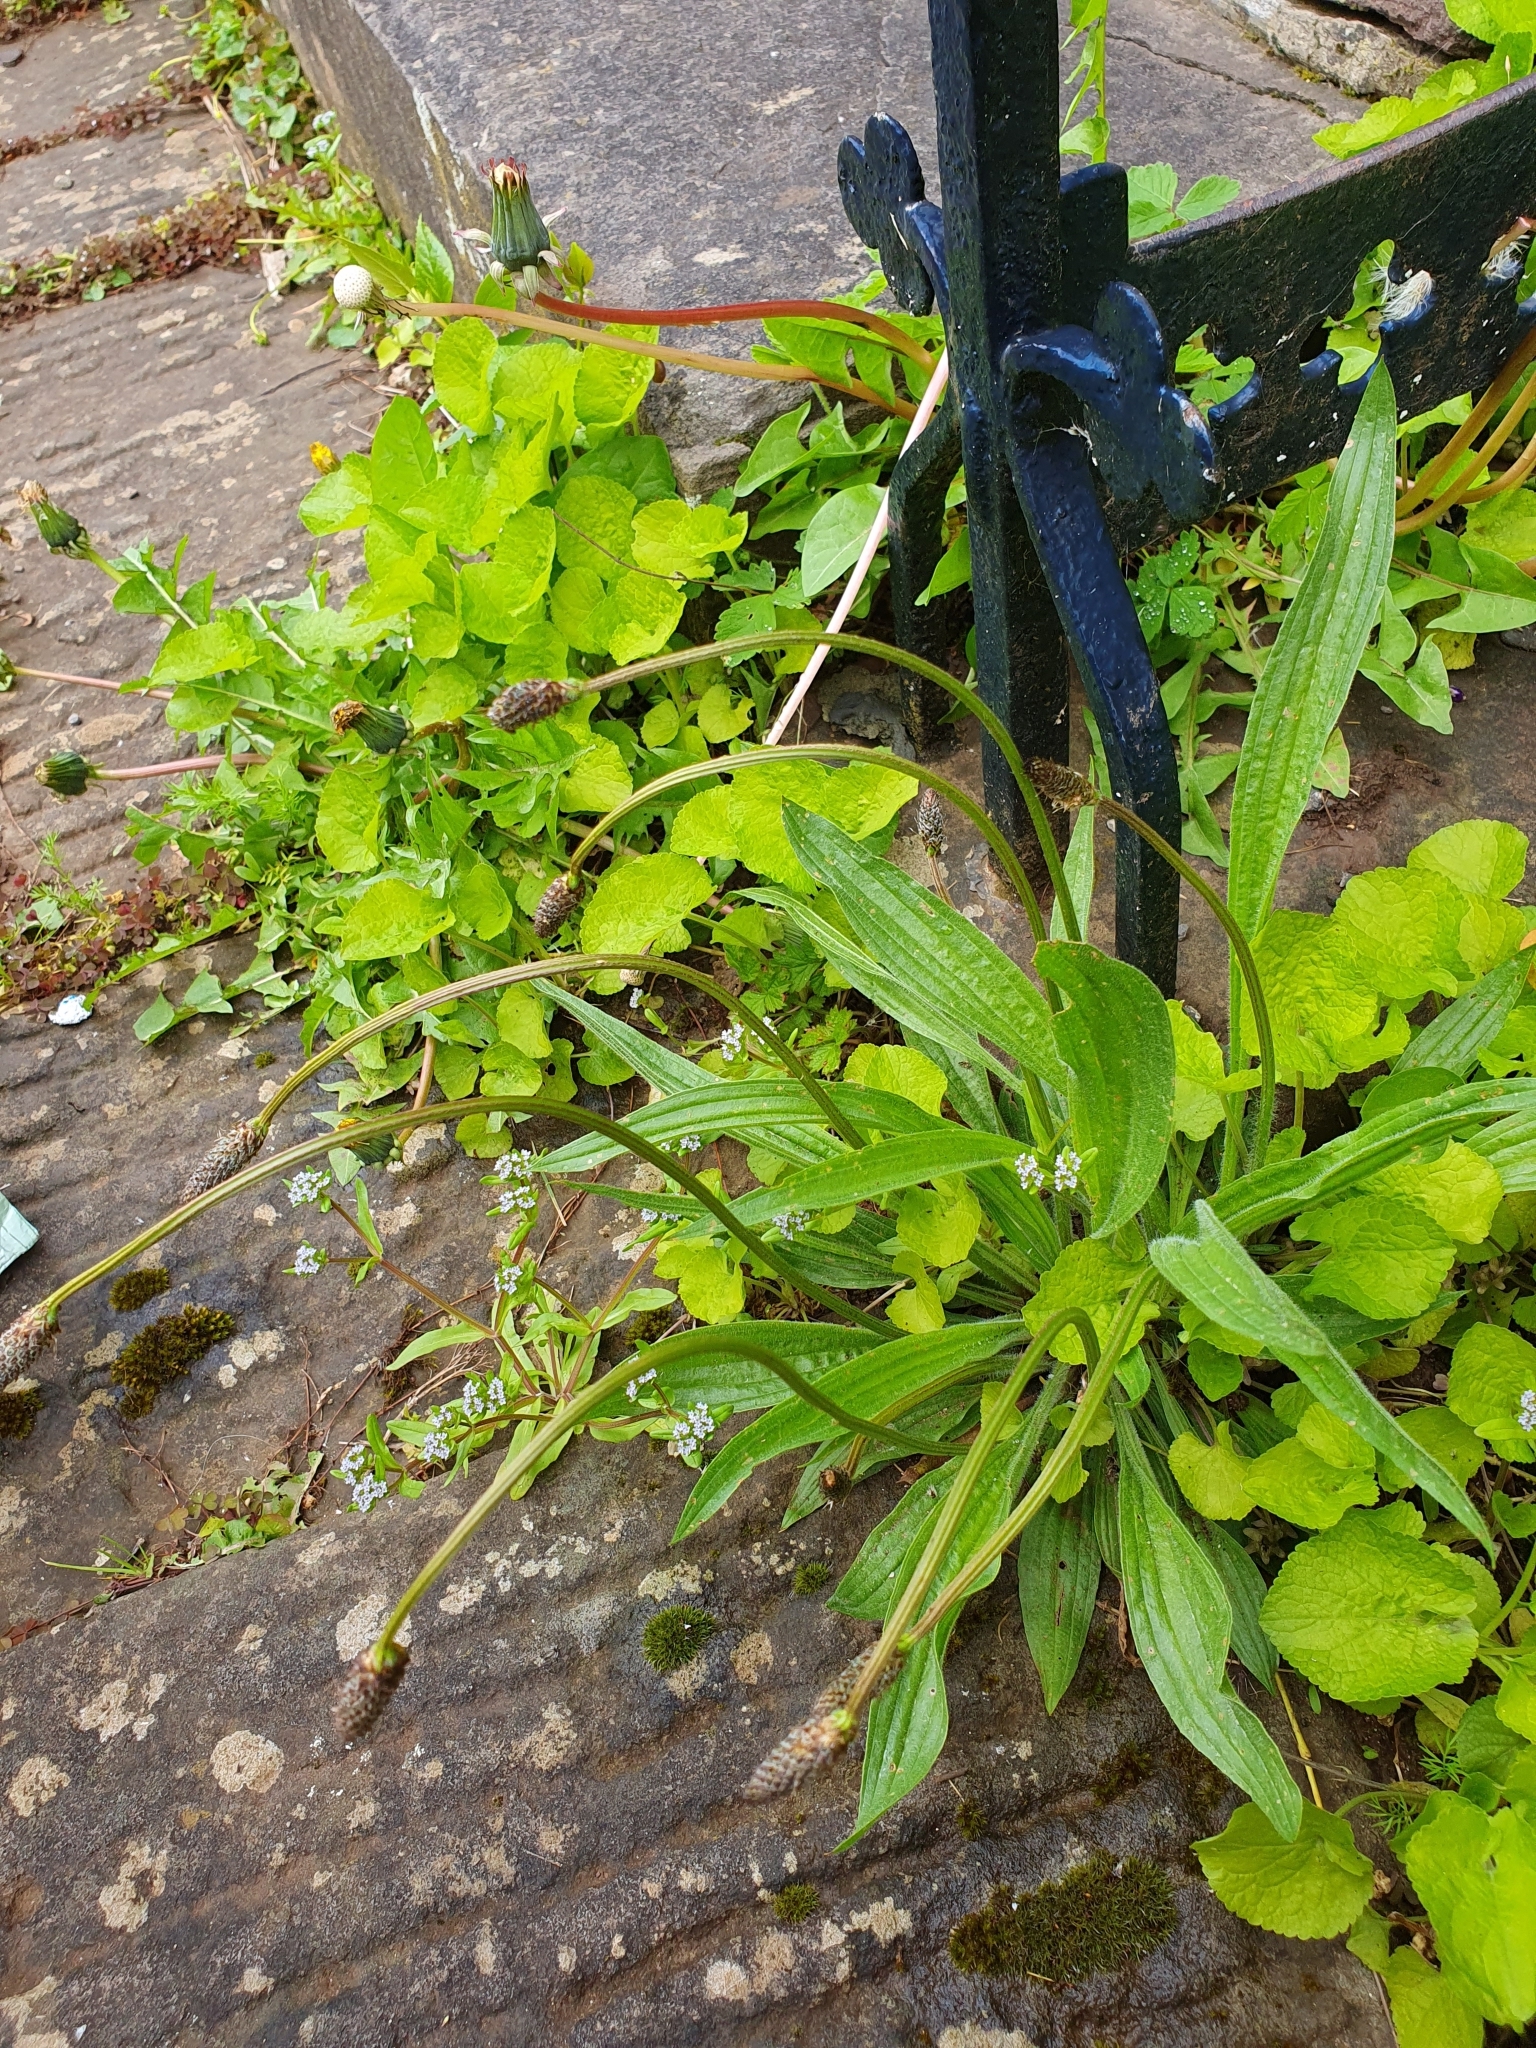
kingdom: Plantae
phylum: Tracheophyta
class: Magnoliopsida
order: Lamiales
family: Plantaginaceae
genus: Plantago
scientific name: Plantago lanceolata
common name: Ribwort plantain
